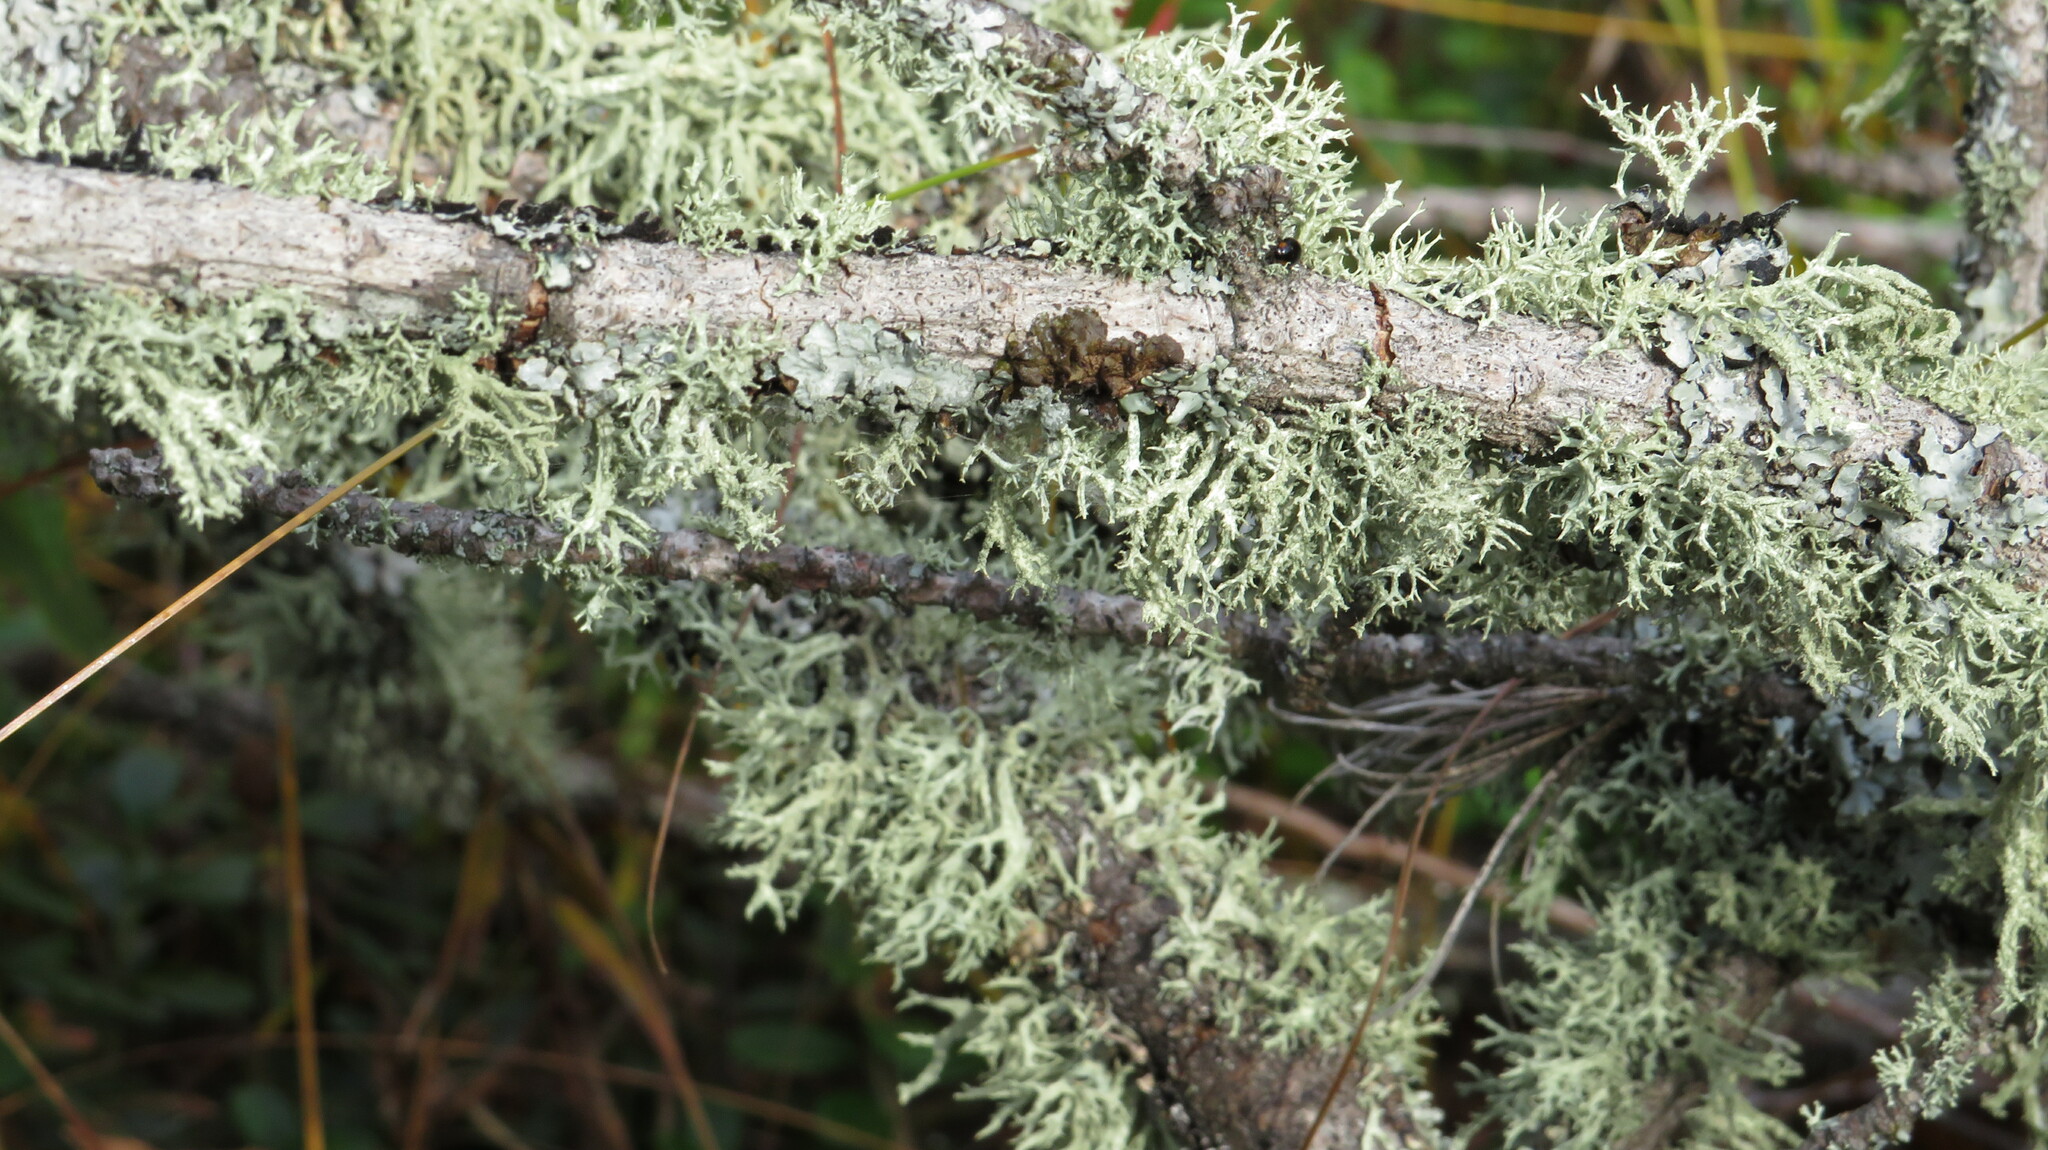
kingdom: Fungi
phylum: Ascomycota
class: Lecanoromycetes
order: Lecanorales
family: Parmeliaceae
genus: Evernia
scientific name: Evernia mesomorpha
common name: Boreal oak moss lichen
